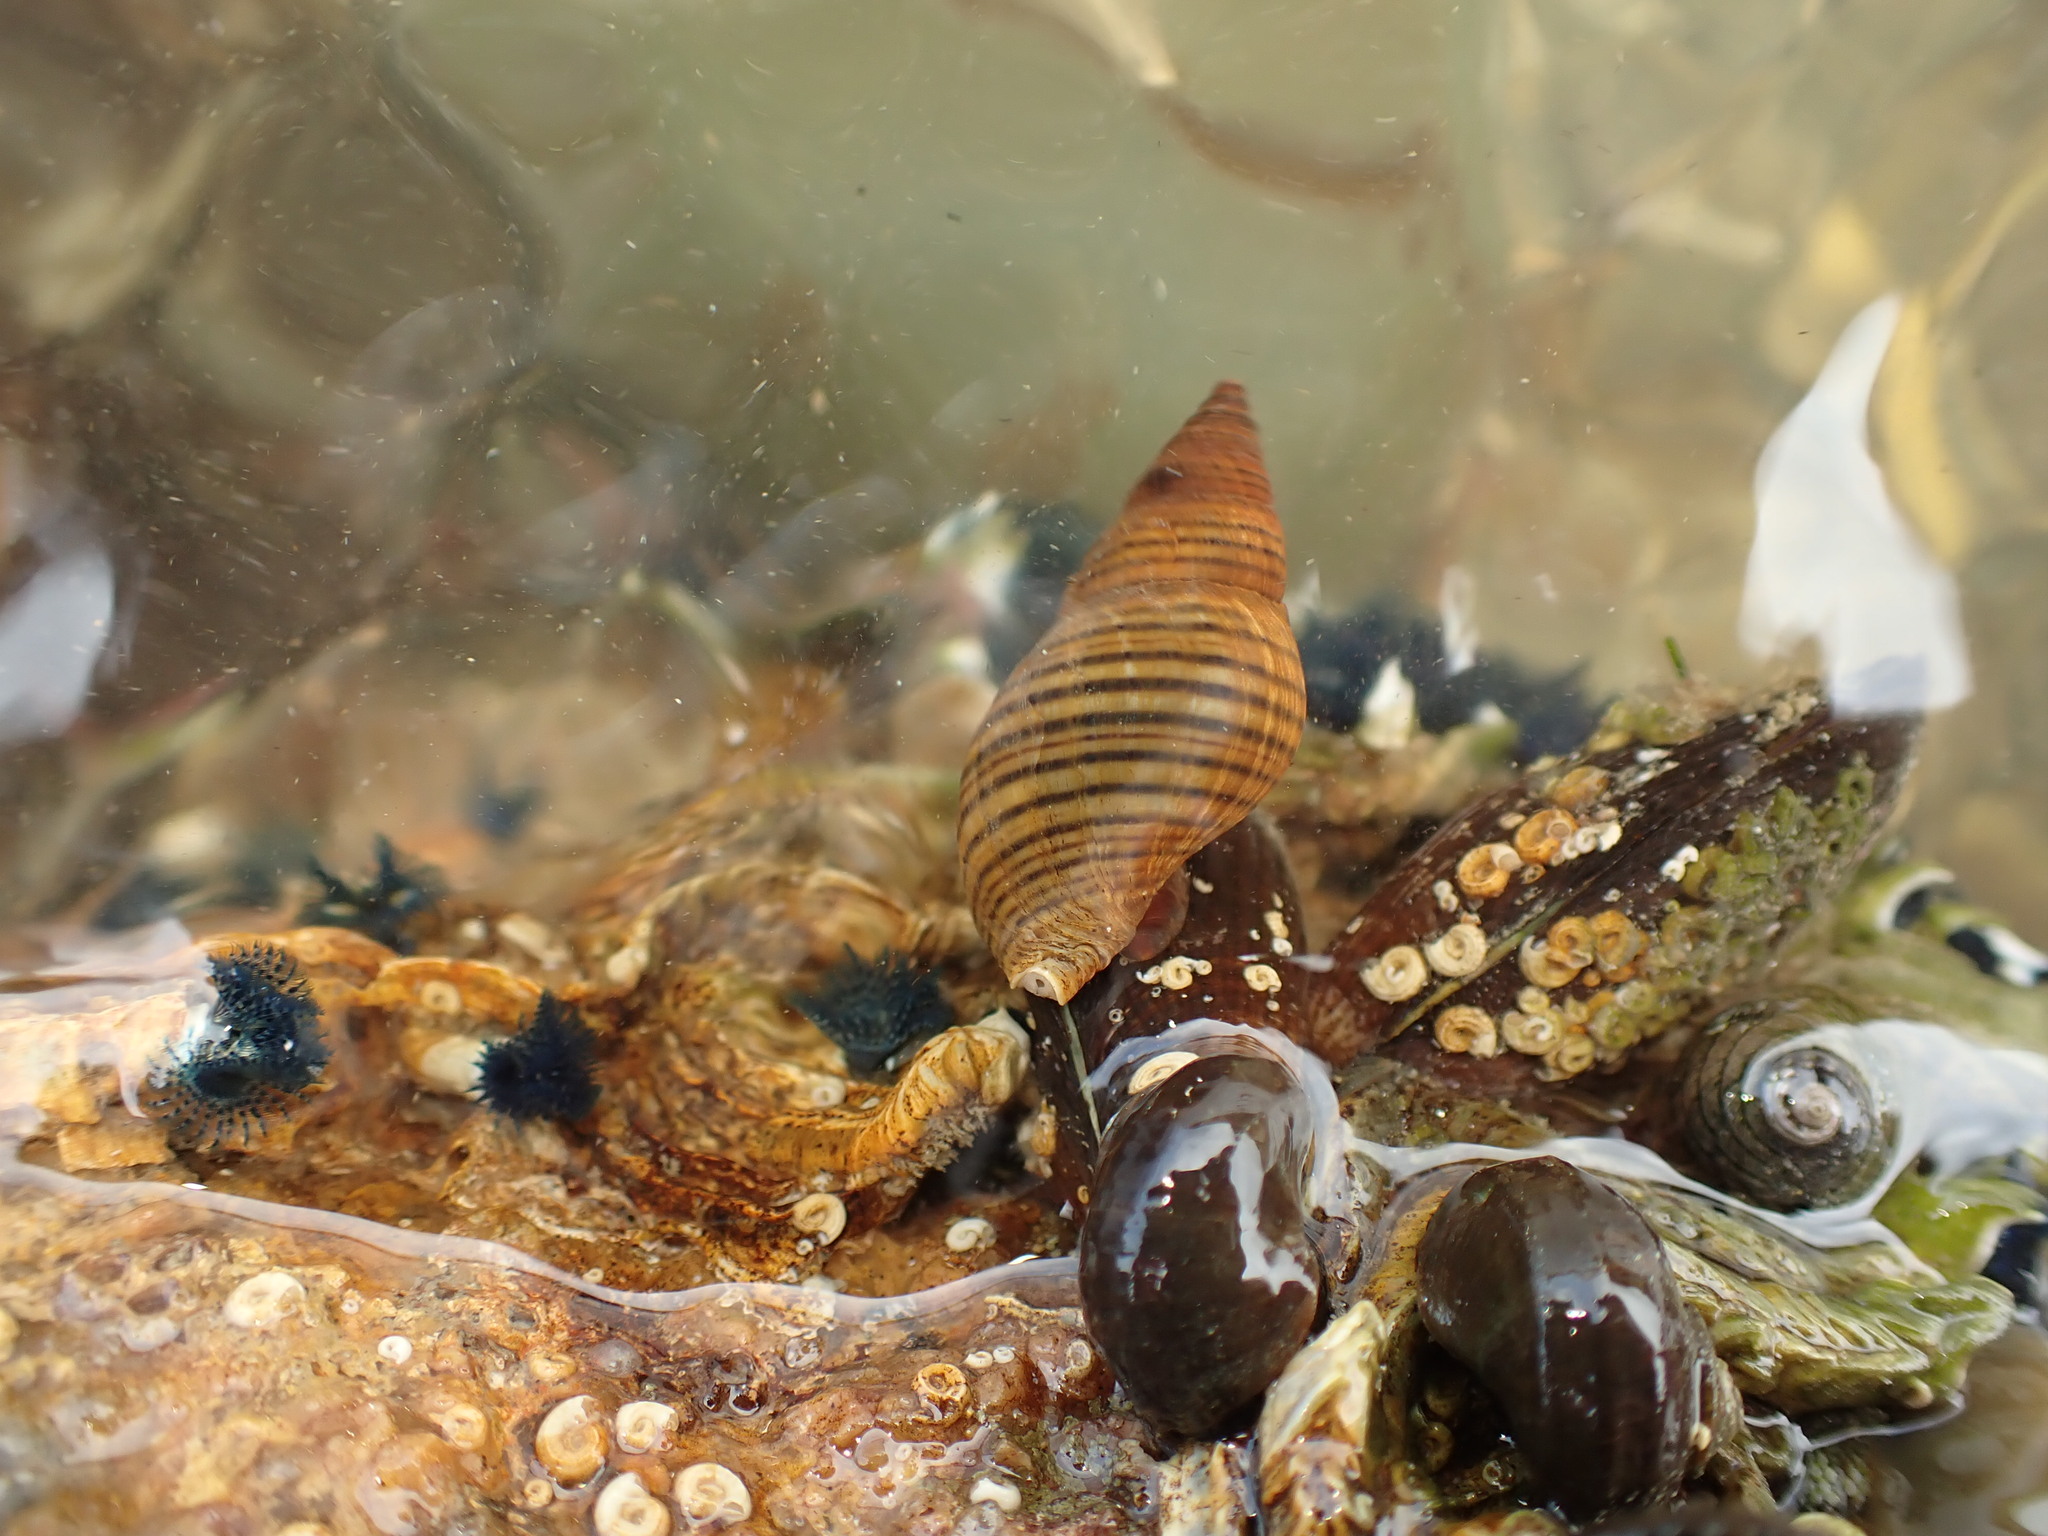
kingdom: Animalia
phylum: Mollusca
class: Gastropoda
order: Neogastropoda
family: Tudiclidae
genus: Buccinulum
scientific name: Buccinulum littorinoides
